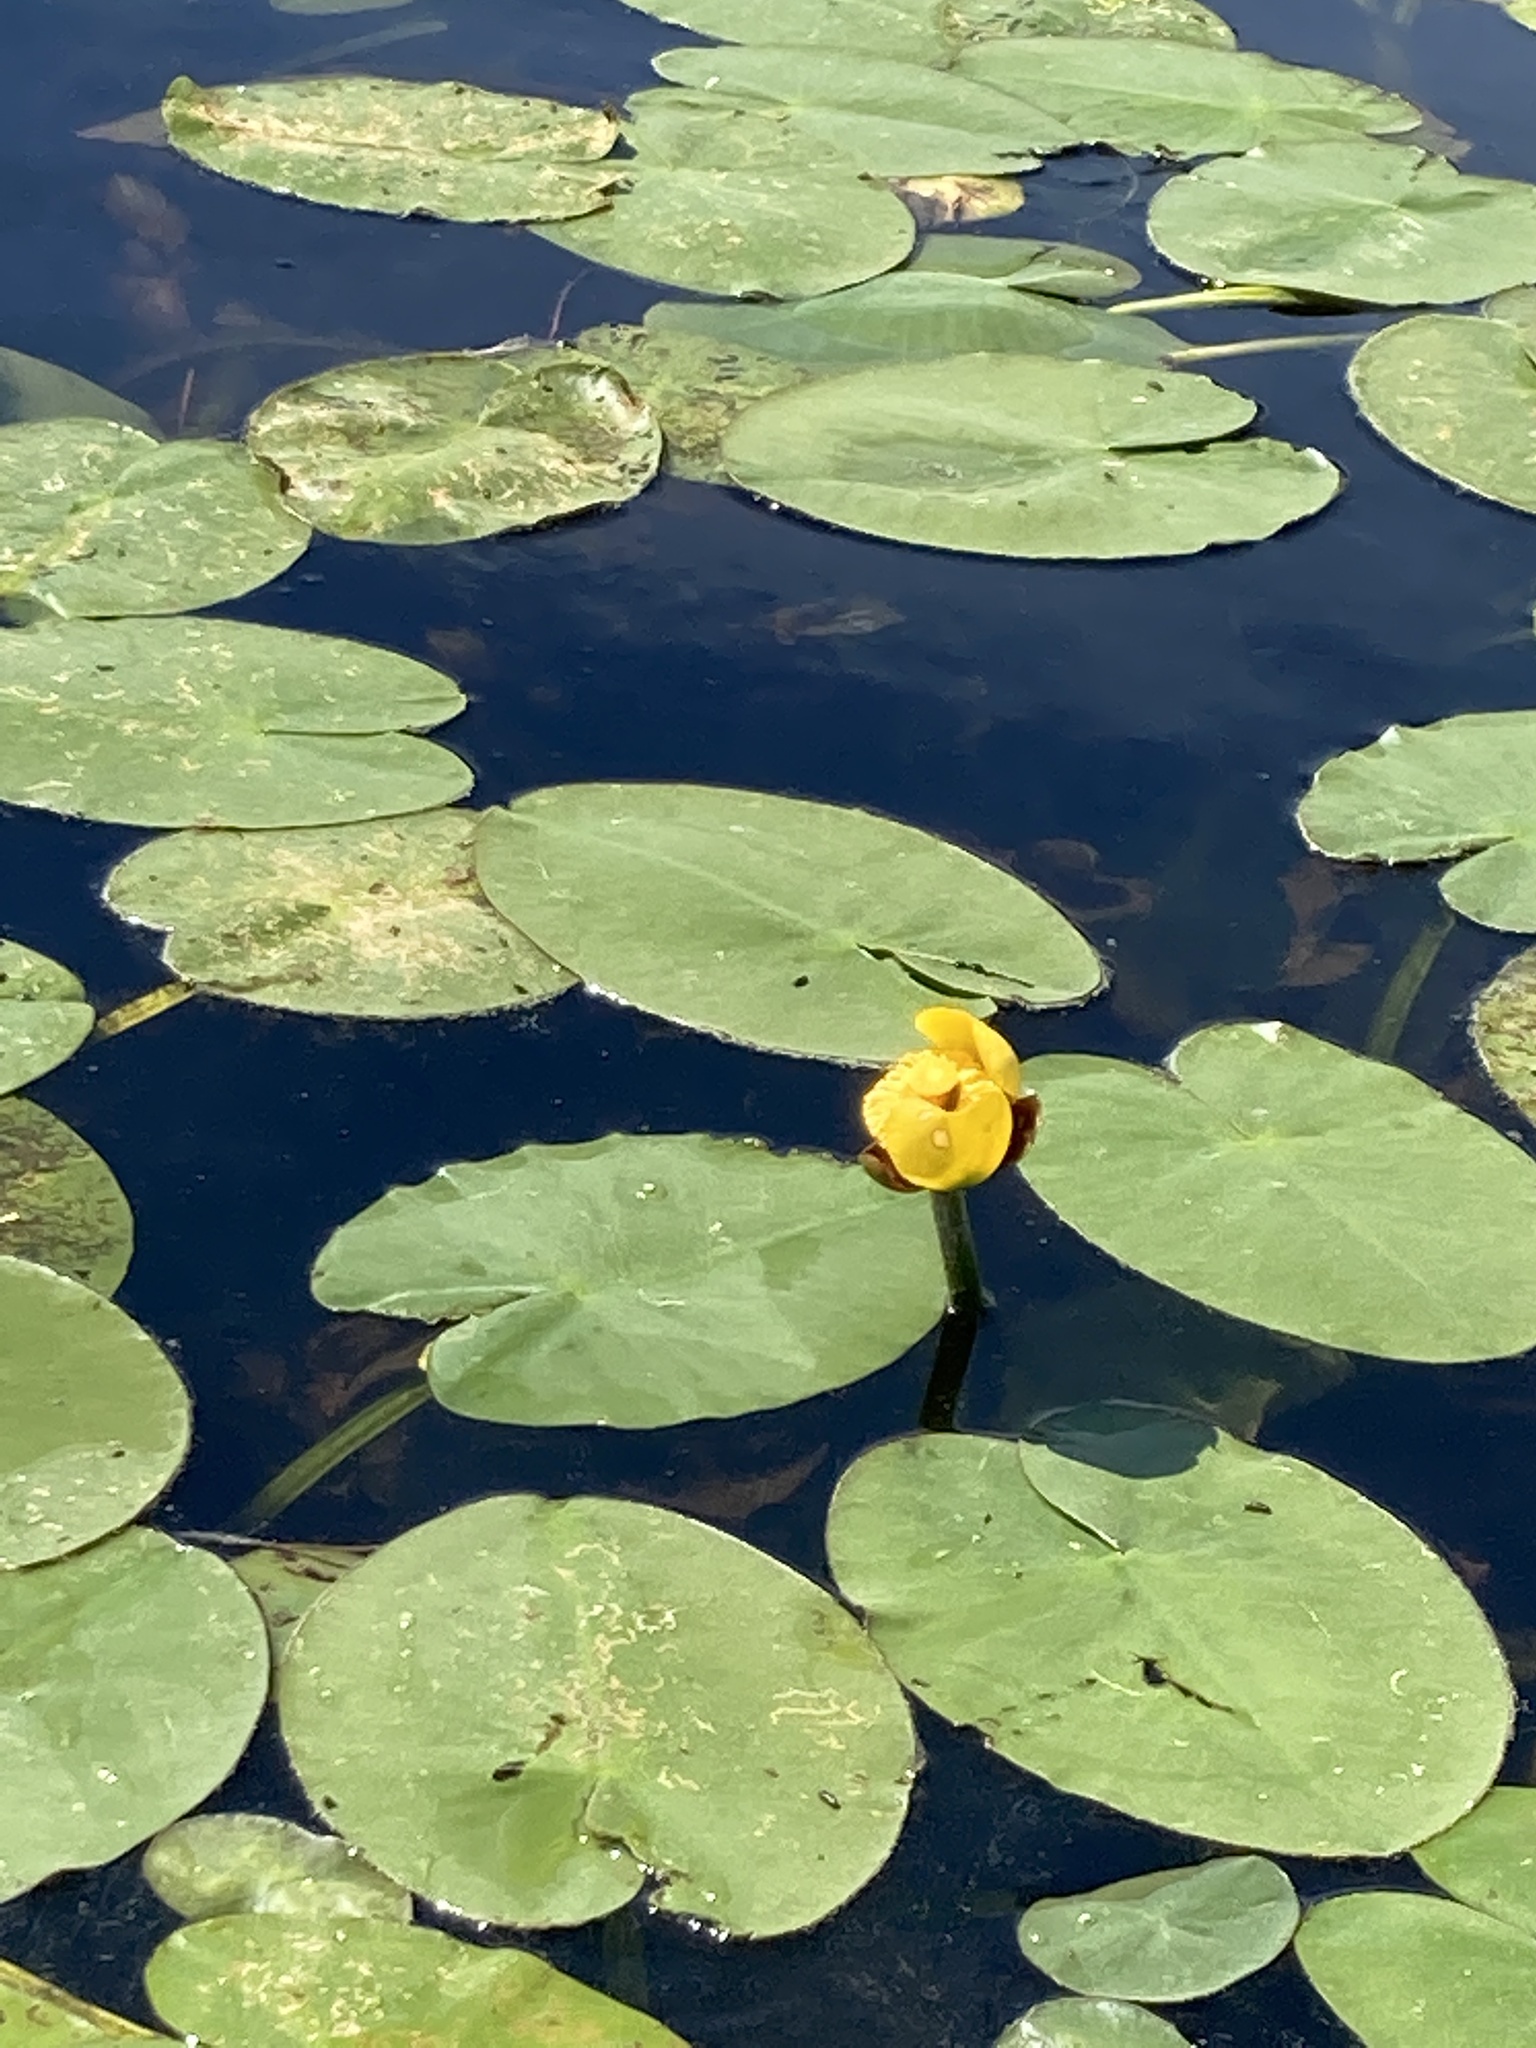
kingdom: Plantae
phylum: Tracheophyta
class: Magnoliopsida
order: Nymphaeales
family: Nymphaeaceae
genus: Nuphar
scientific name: Nuphar variegata
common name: Beaver-root
